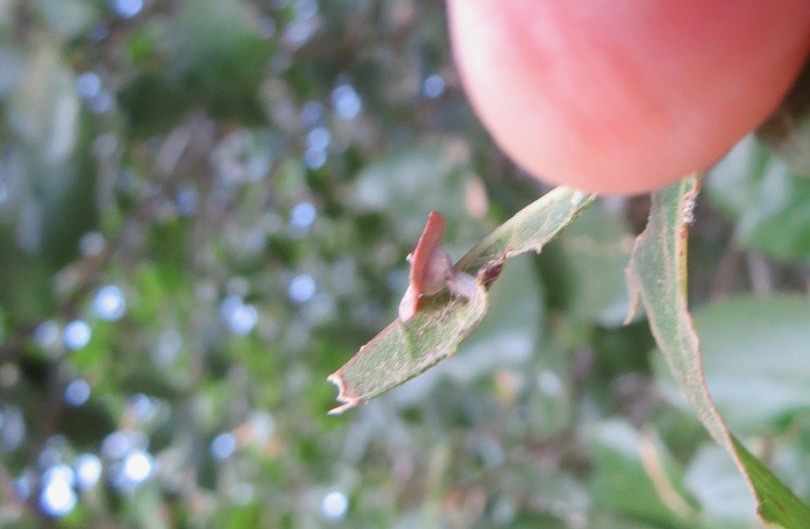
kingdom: Animalia
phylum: Arthropoda
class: Insecta
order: Hymenoptera
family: Cynipidae
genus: Amphibolips
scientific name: Amphibolips quercuspomiformis
